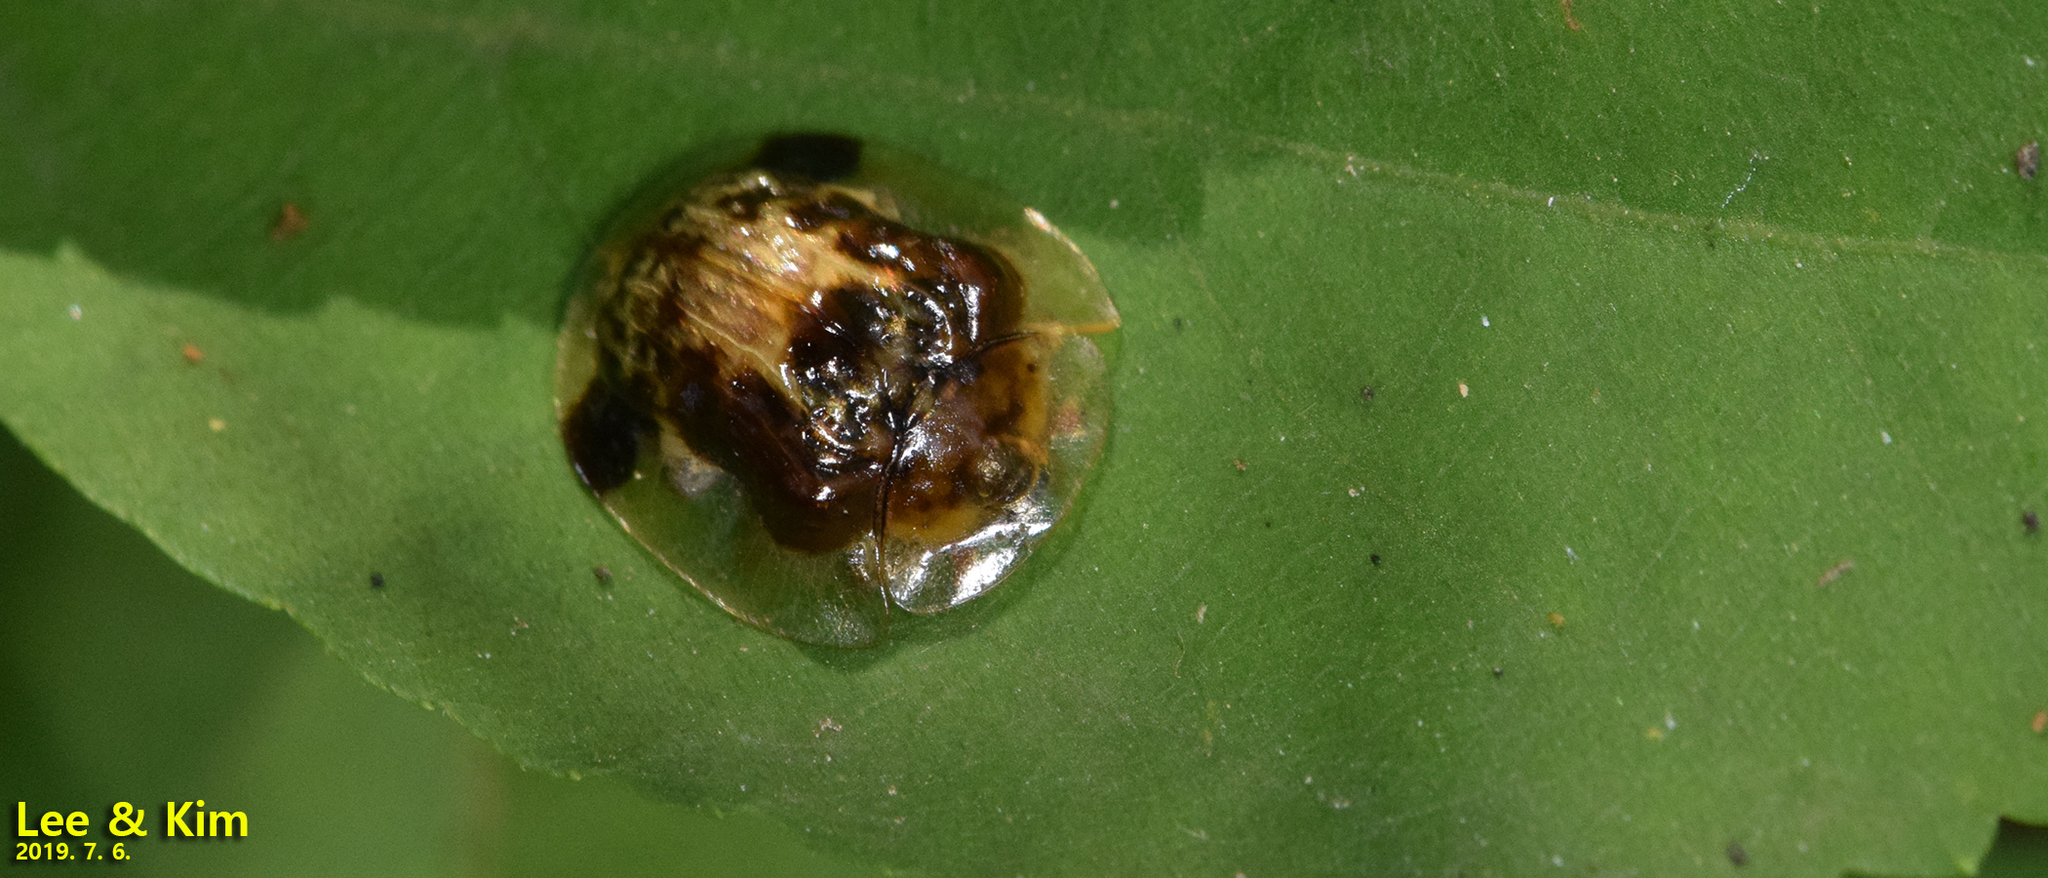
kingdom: Animalia
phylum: Arthropoda
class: Insecta
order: Coleoptera
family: Chrysomelidae
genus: Thlaspida
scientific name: Thlaspida biramosa
